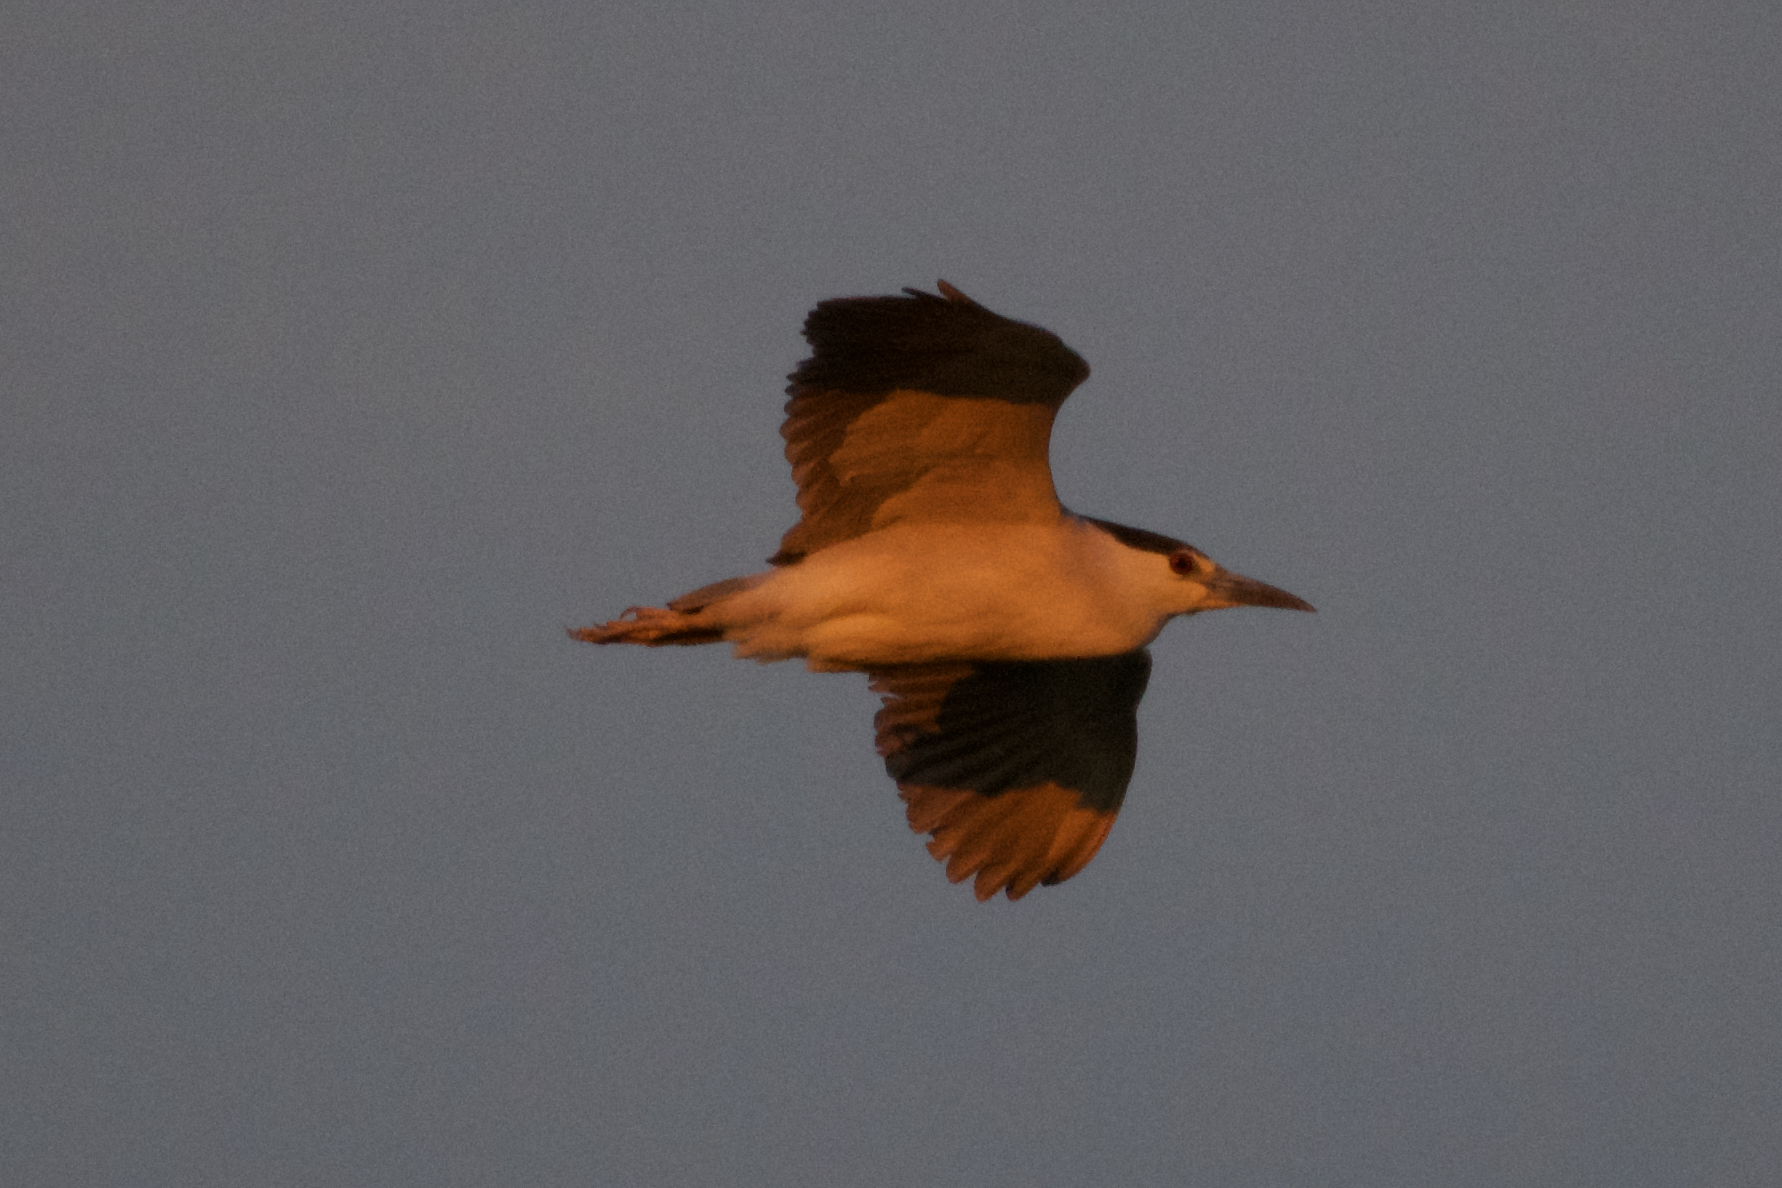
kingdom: Animalia
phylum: Chordata
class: Aves
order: Pelecaniformes
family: Ardeidae
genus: Nycticorax
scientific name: Nycticorax nycticorax
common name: Black-crowned night heron
